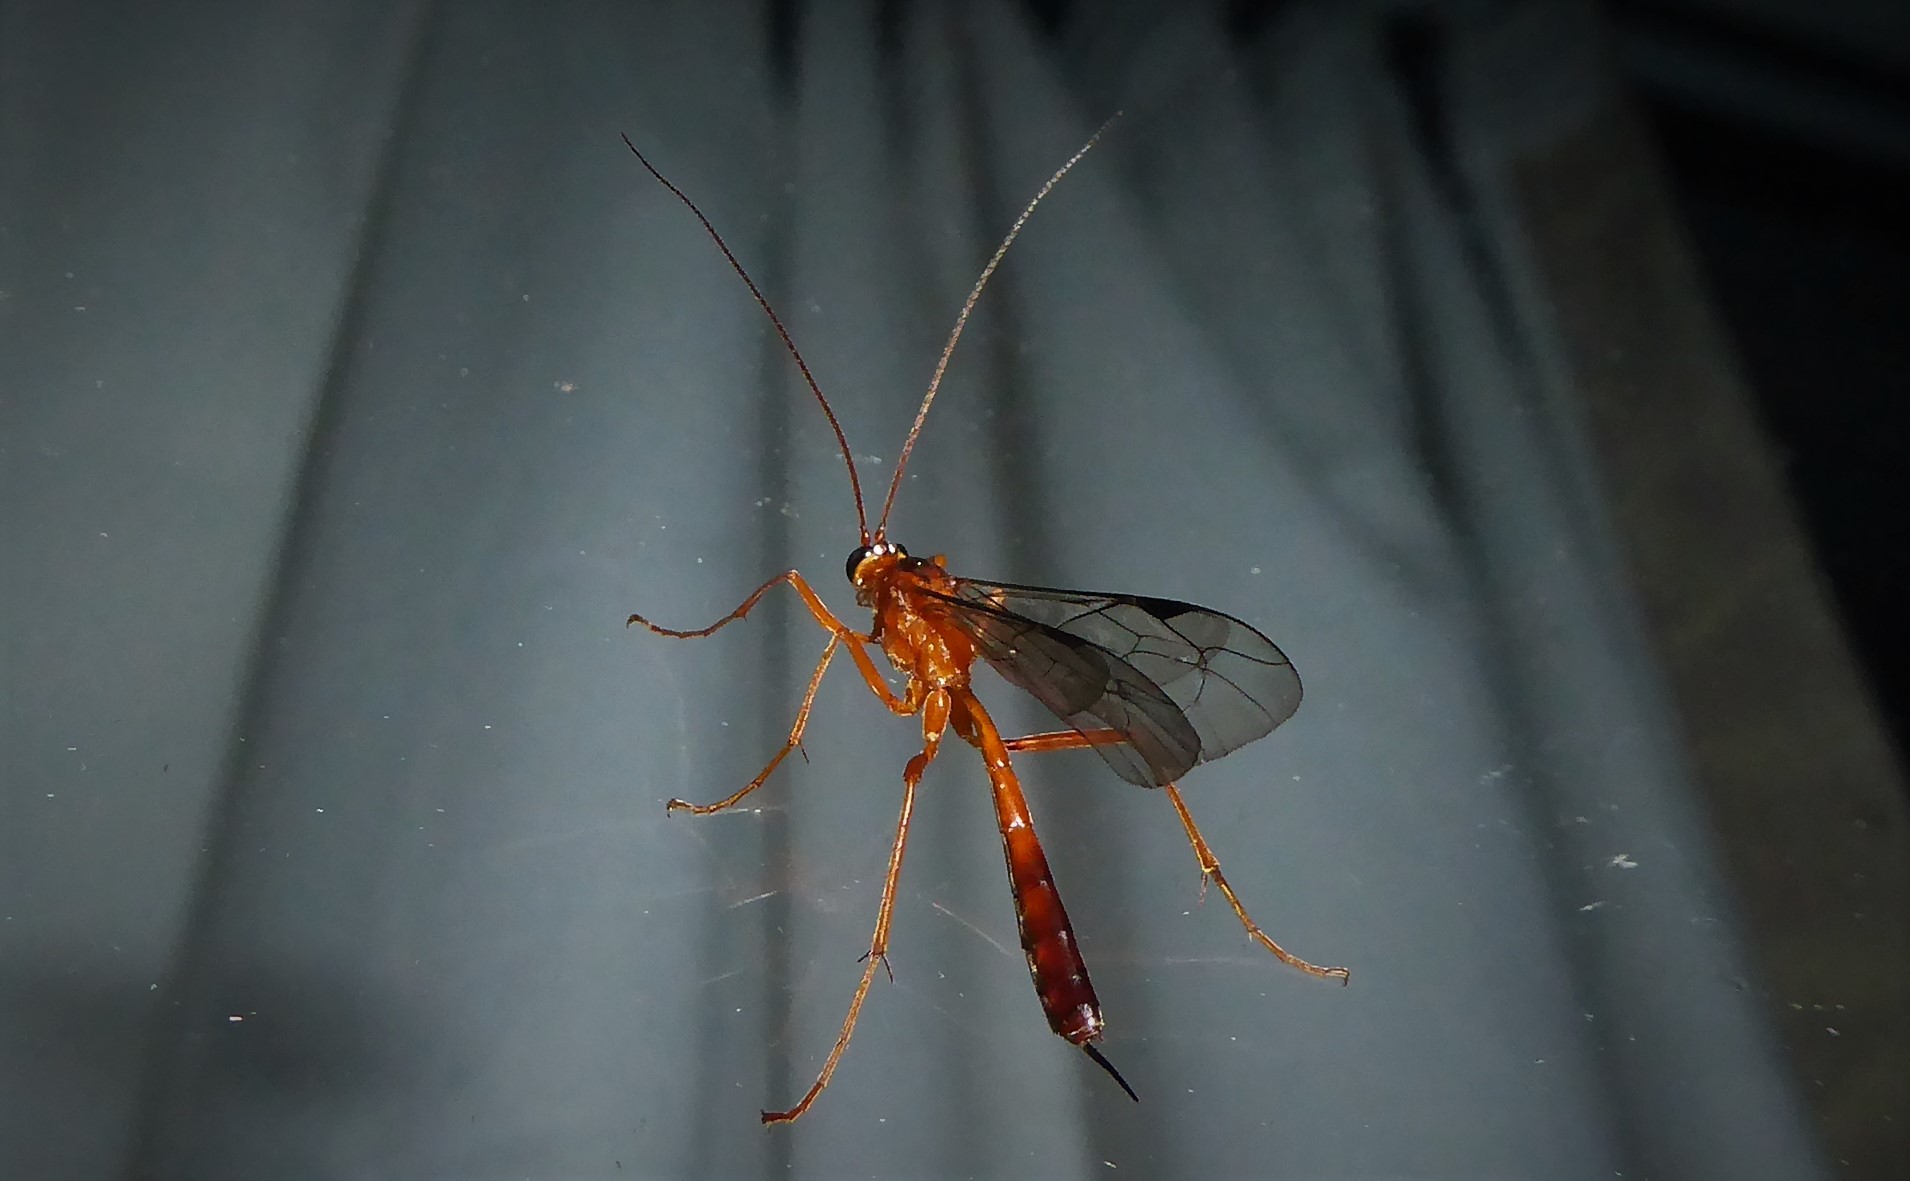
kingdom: Animalia
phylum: Arthropoda
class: Insecta
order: Hymenoptera
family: Ichneumonidae
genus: Netelia
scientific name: Netelia ephippiata
